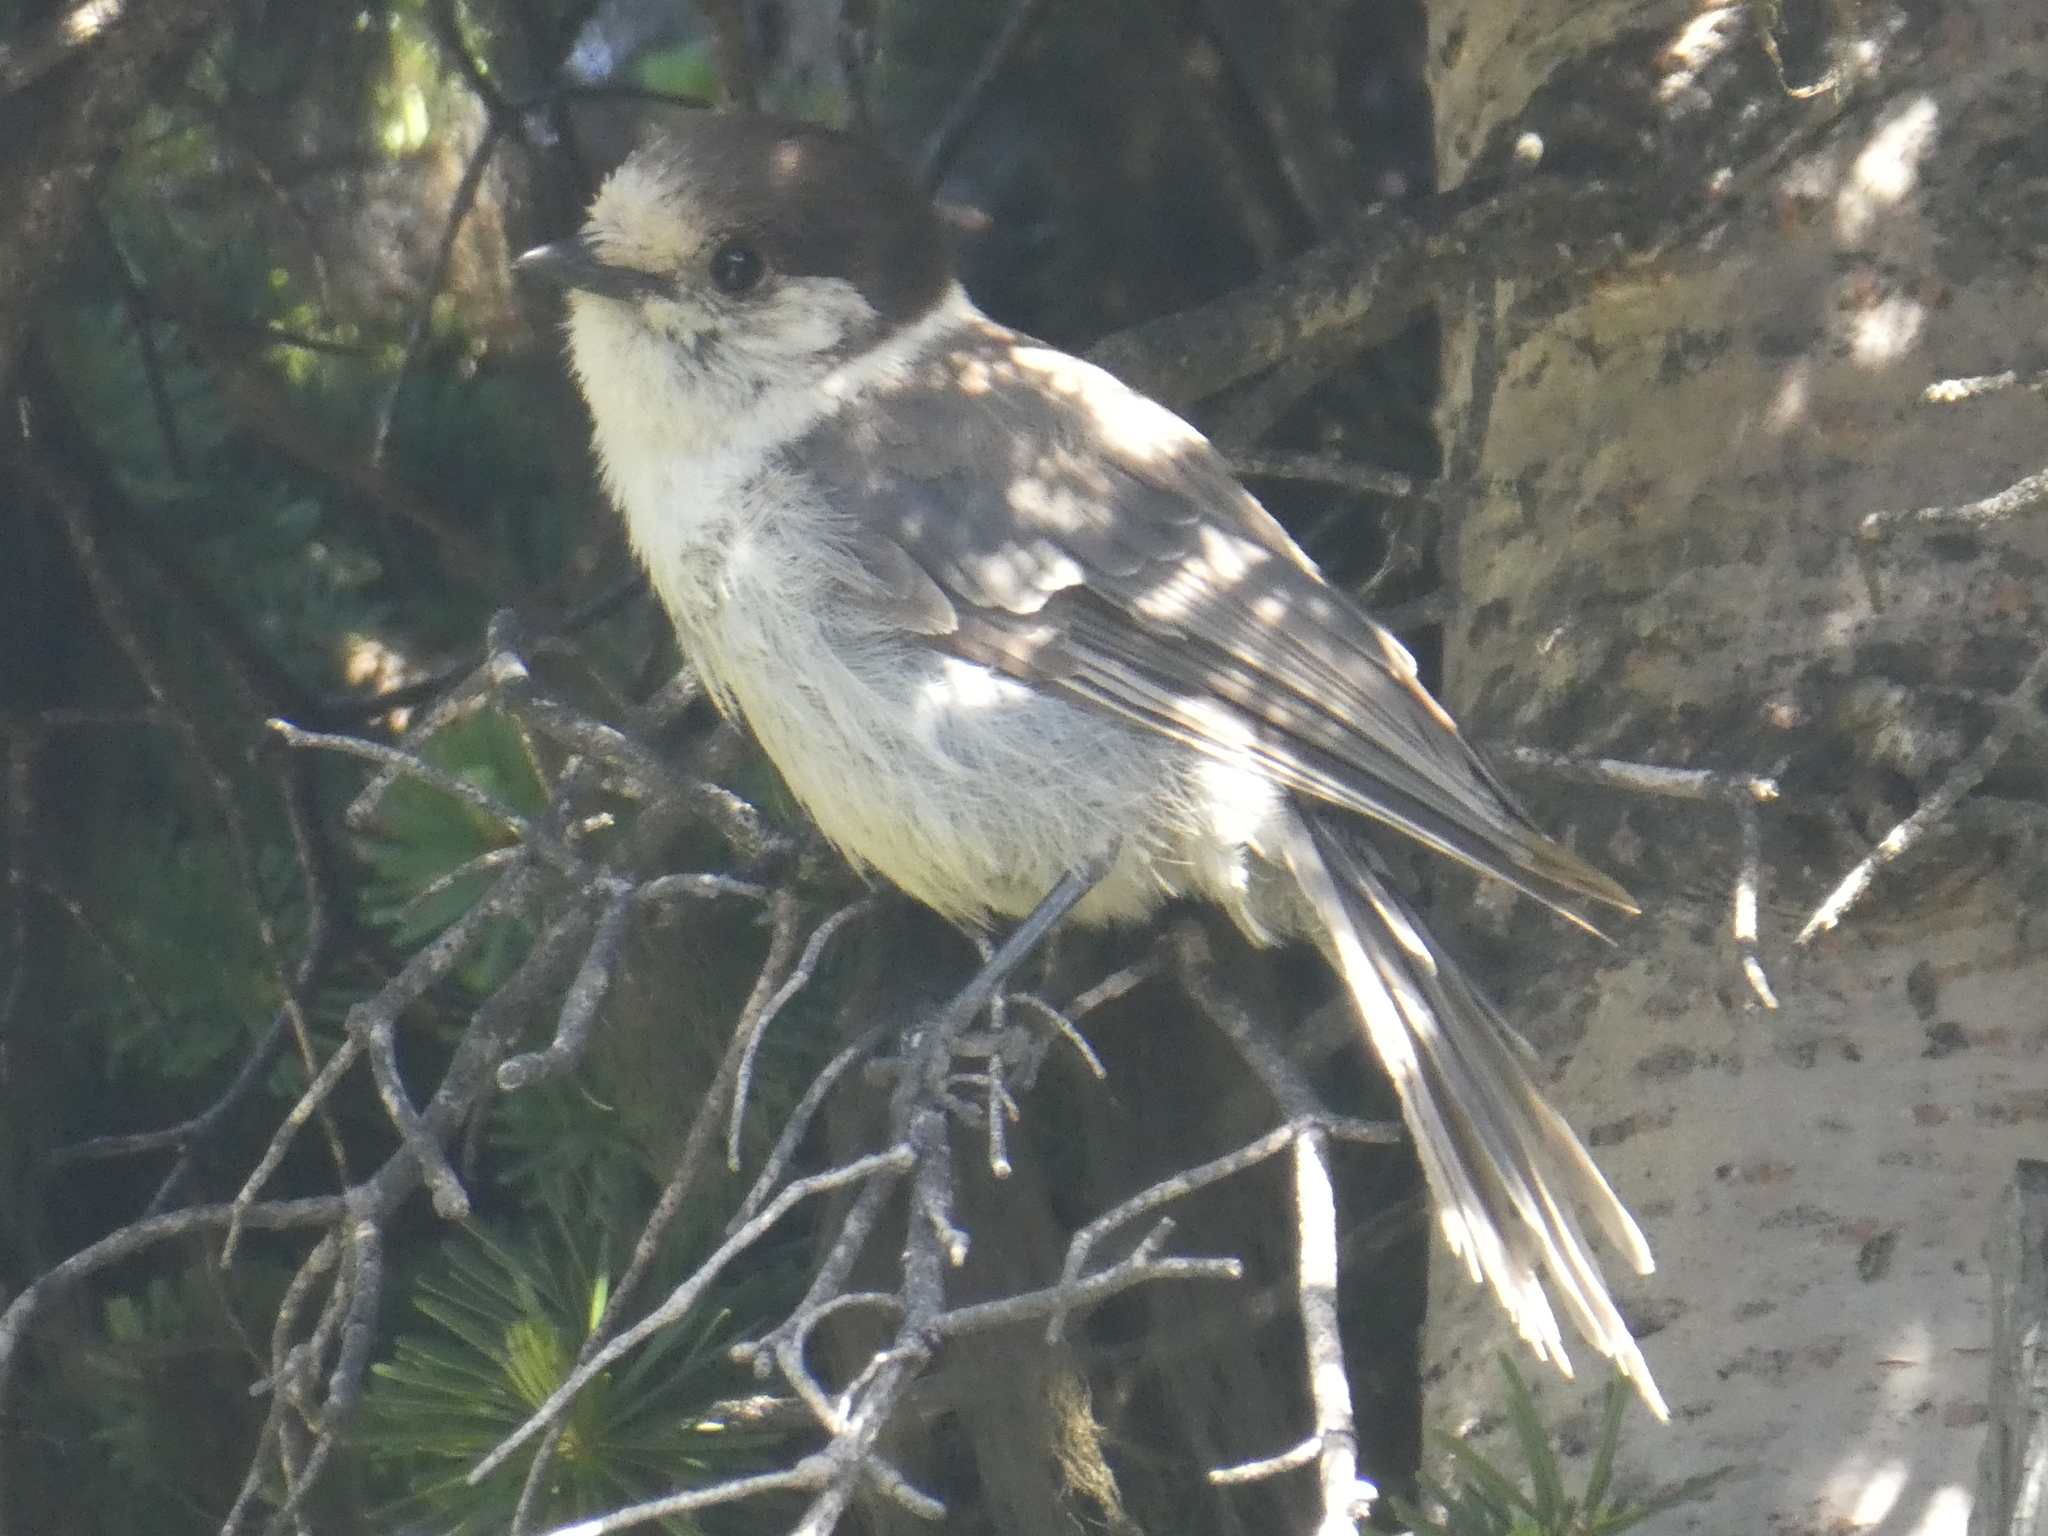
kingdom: Animalia
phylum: Chordata
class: Aves
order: Passeriformes
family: Corvidae
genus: Perisoreus
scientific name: Perisoreus canadensis
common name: Gray jay
